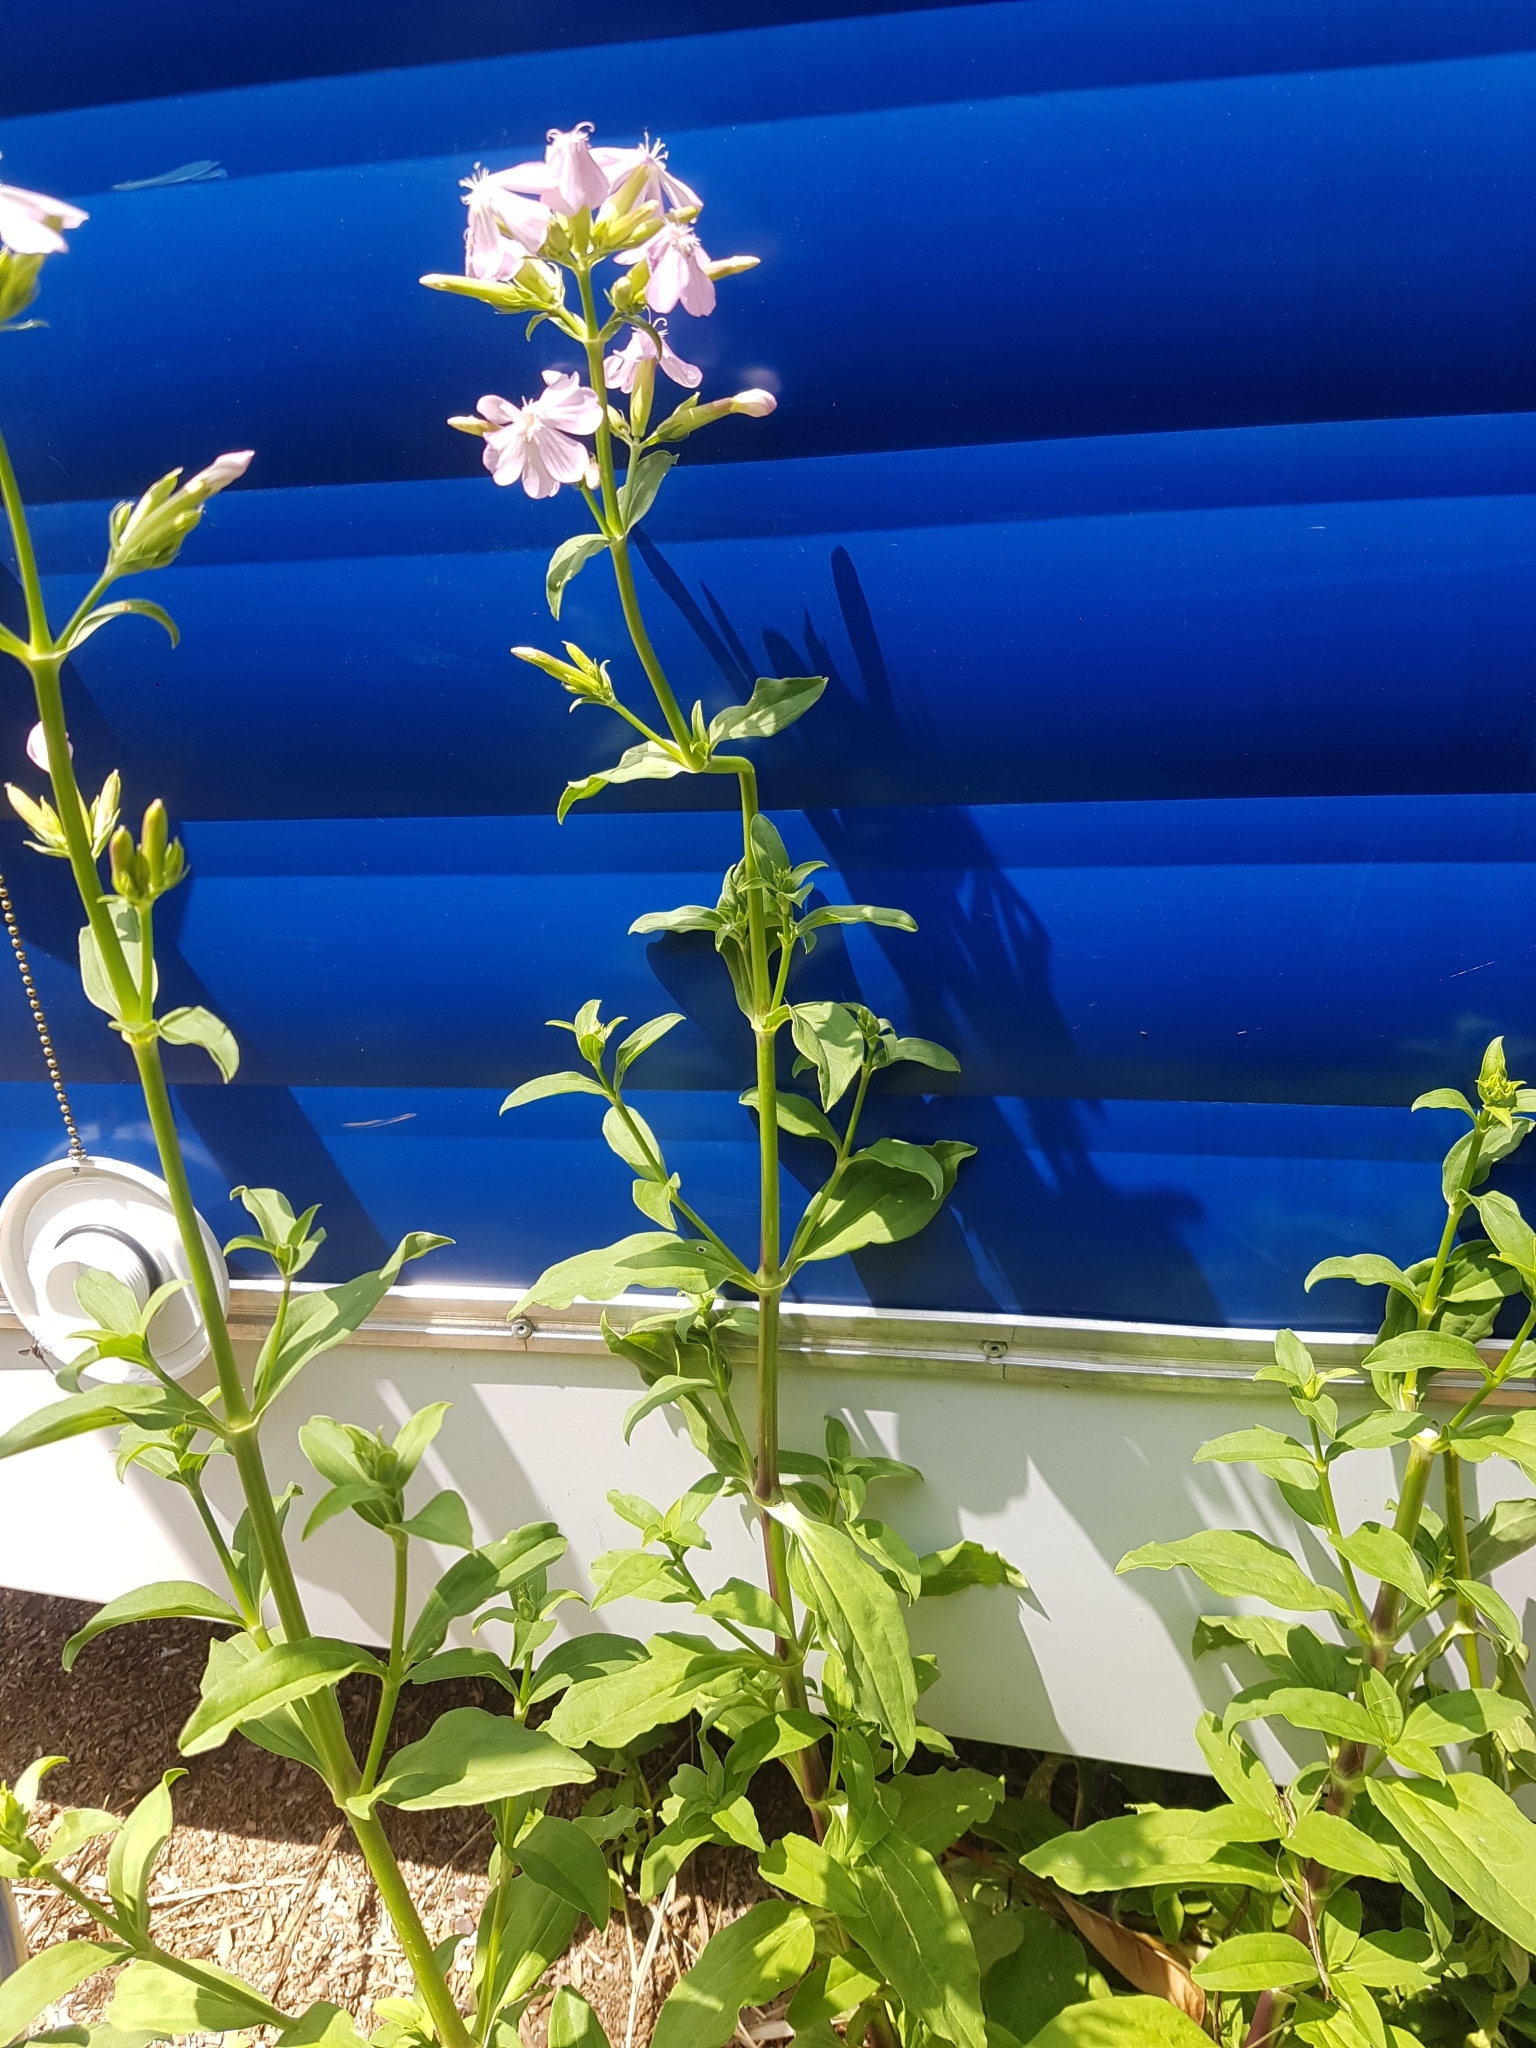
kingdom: Plantae
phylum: Tracheophyta
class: Magnoliopsida
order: Caryophyllales
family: Caryophyllaceae
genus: Saponaria
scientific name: Saponaria officinalis
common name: Soapwort
